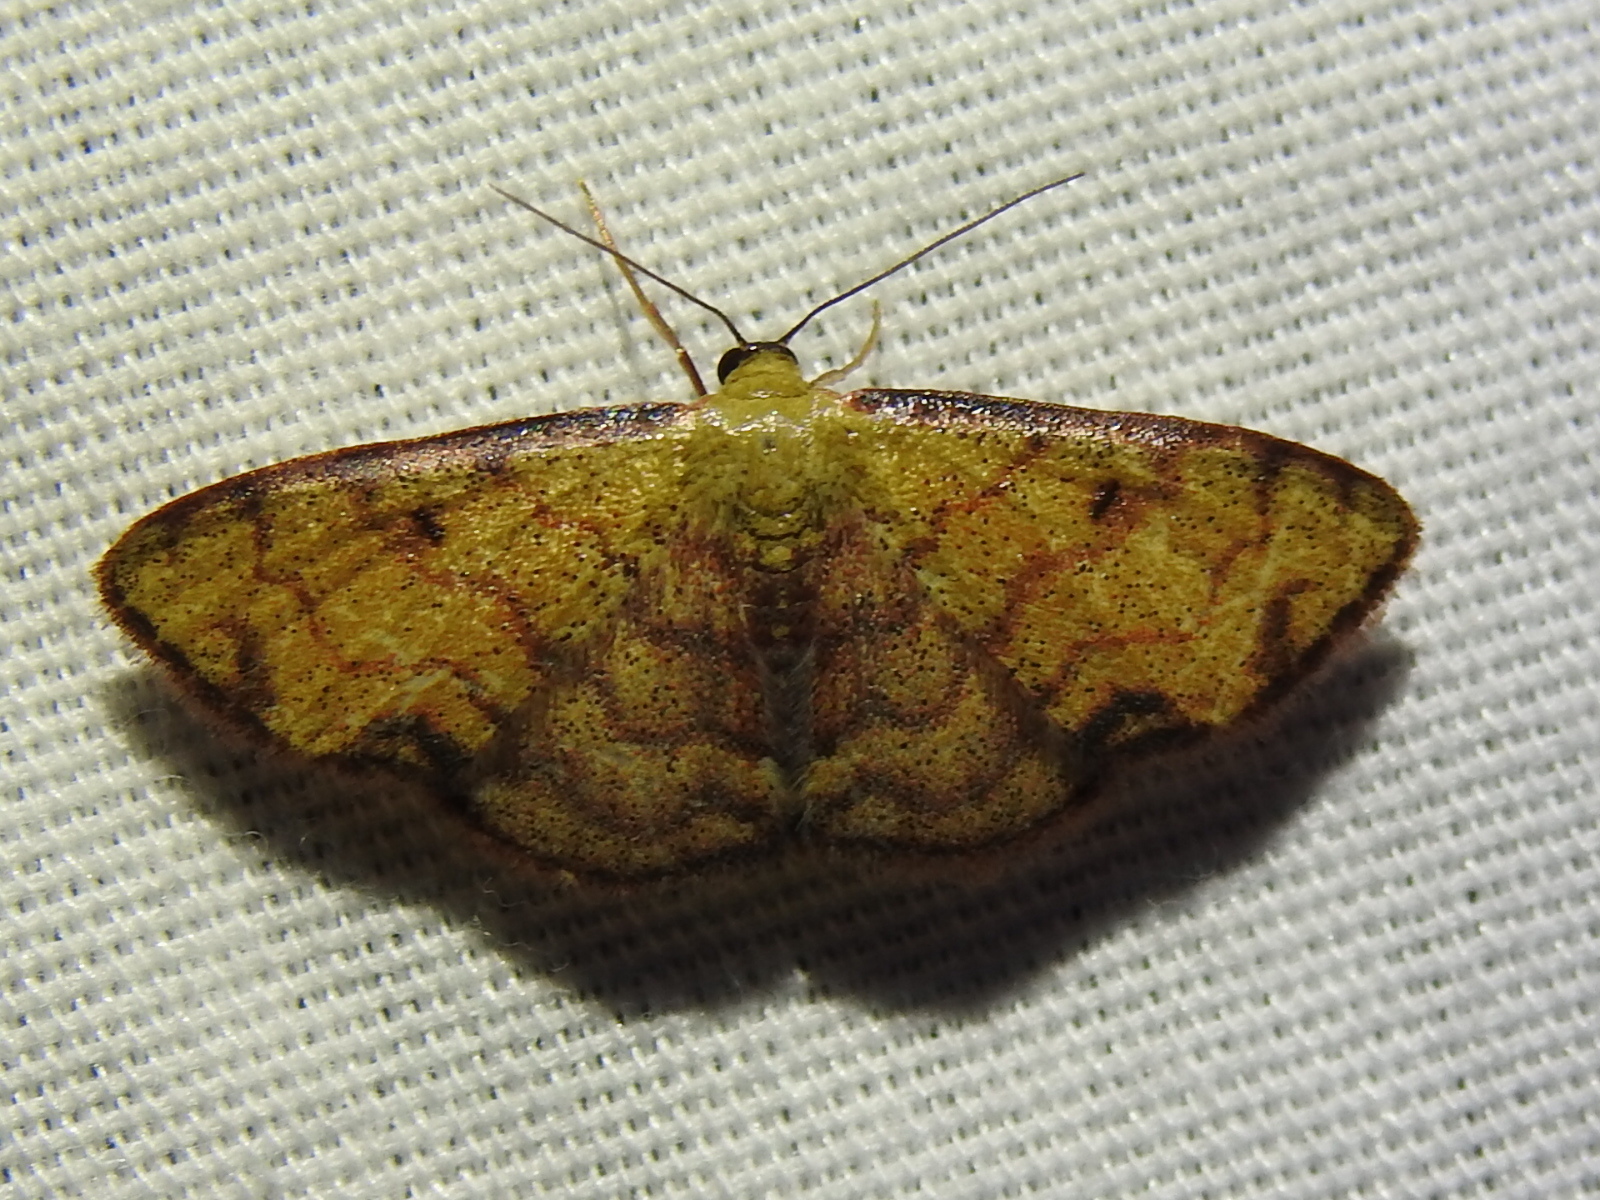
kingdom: Animalia
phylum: Arthropoda
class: Insecta
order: Lepidoptera
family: Geometridae
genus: Semaeopus
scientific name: Semaeopus marginata
